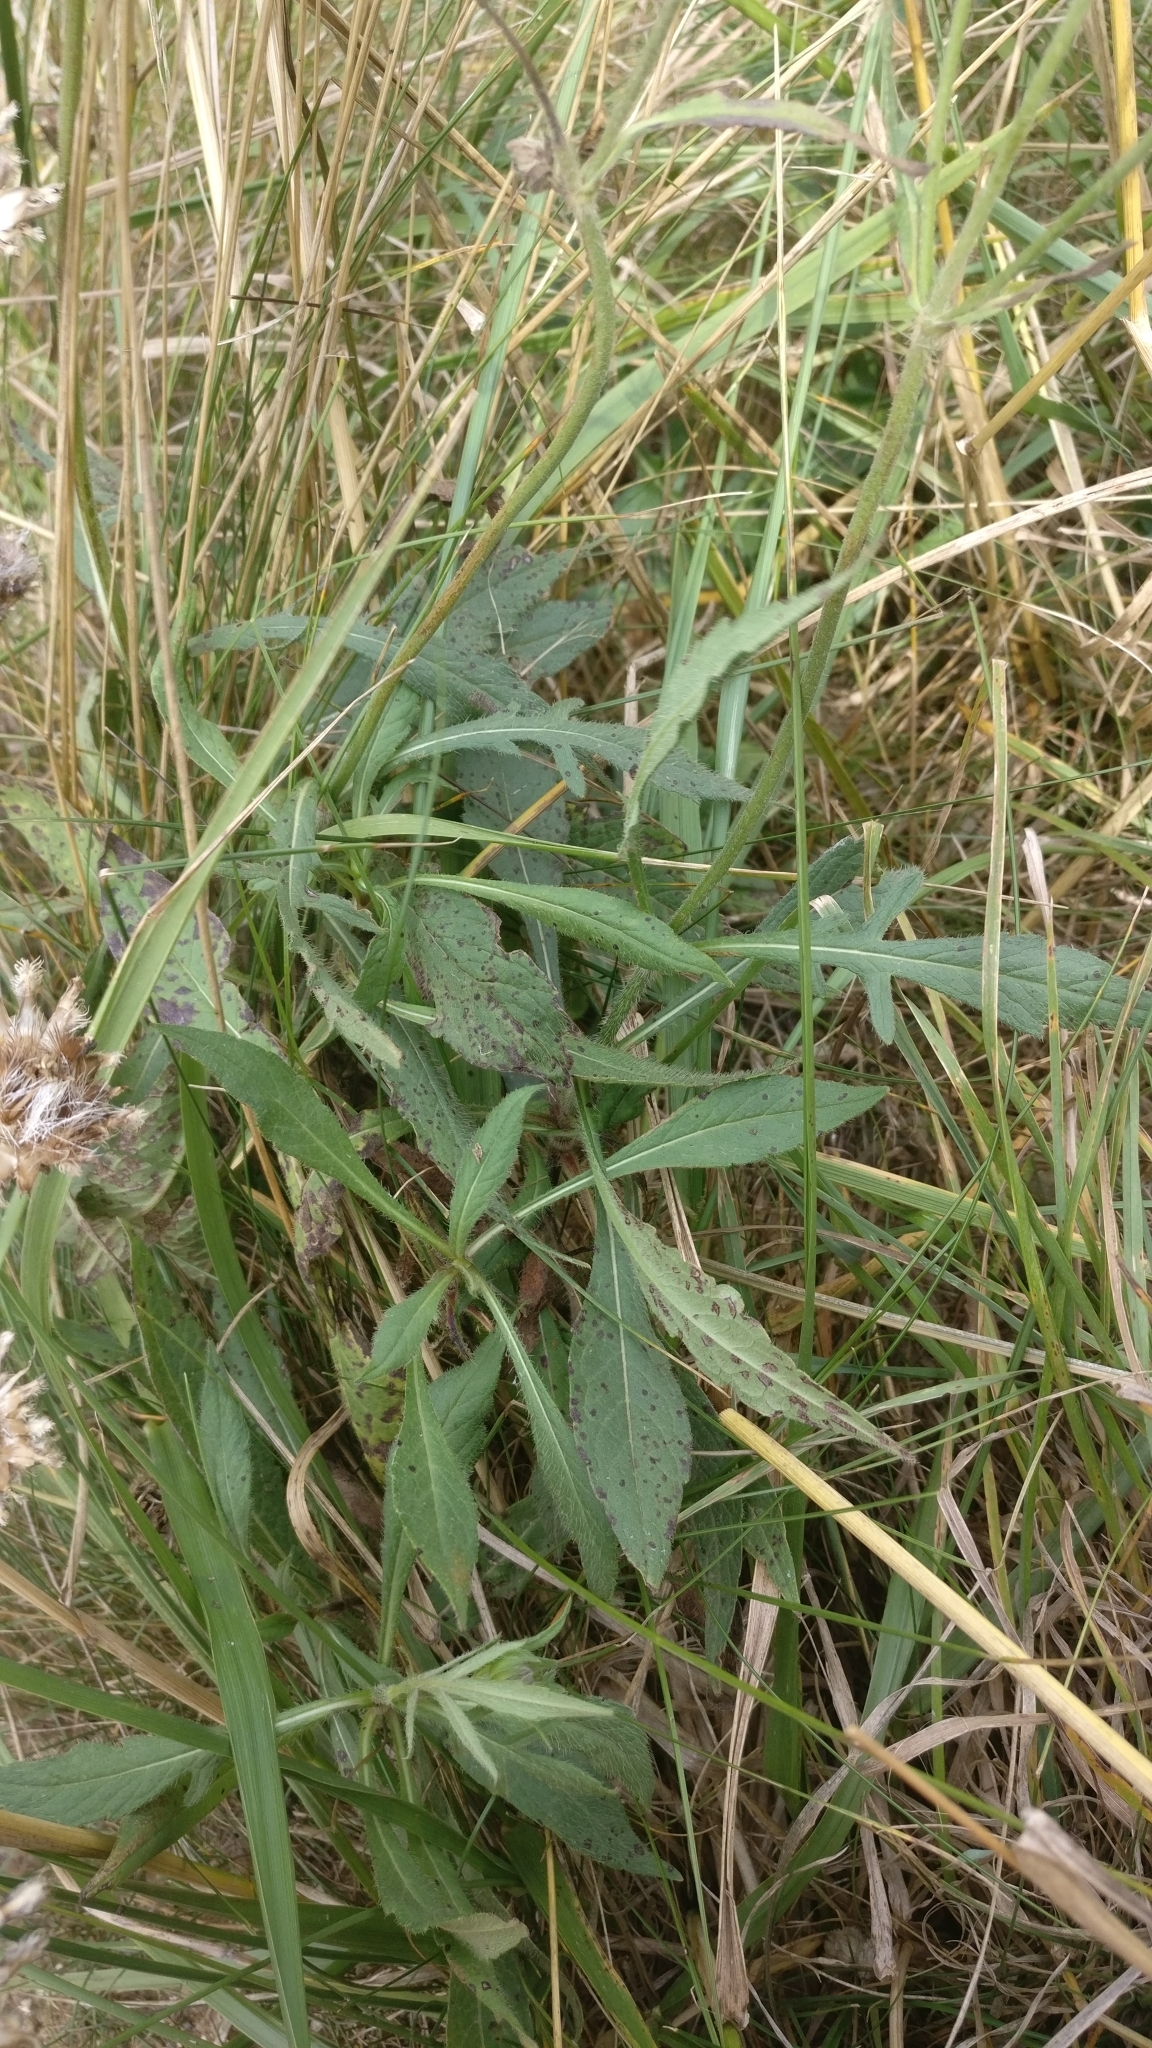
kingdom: Plantae
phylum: Tracheophyta
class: Magnoliopsida
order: Dipsacales
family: Caprifoliaceae
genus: Knautia
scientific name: Knautia arvensis
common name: Field scabiosa
